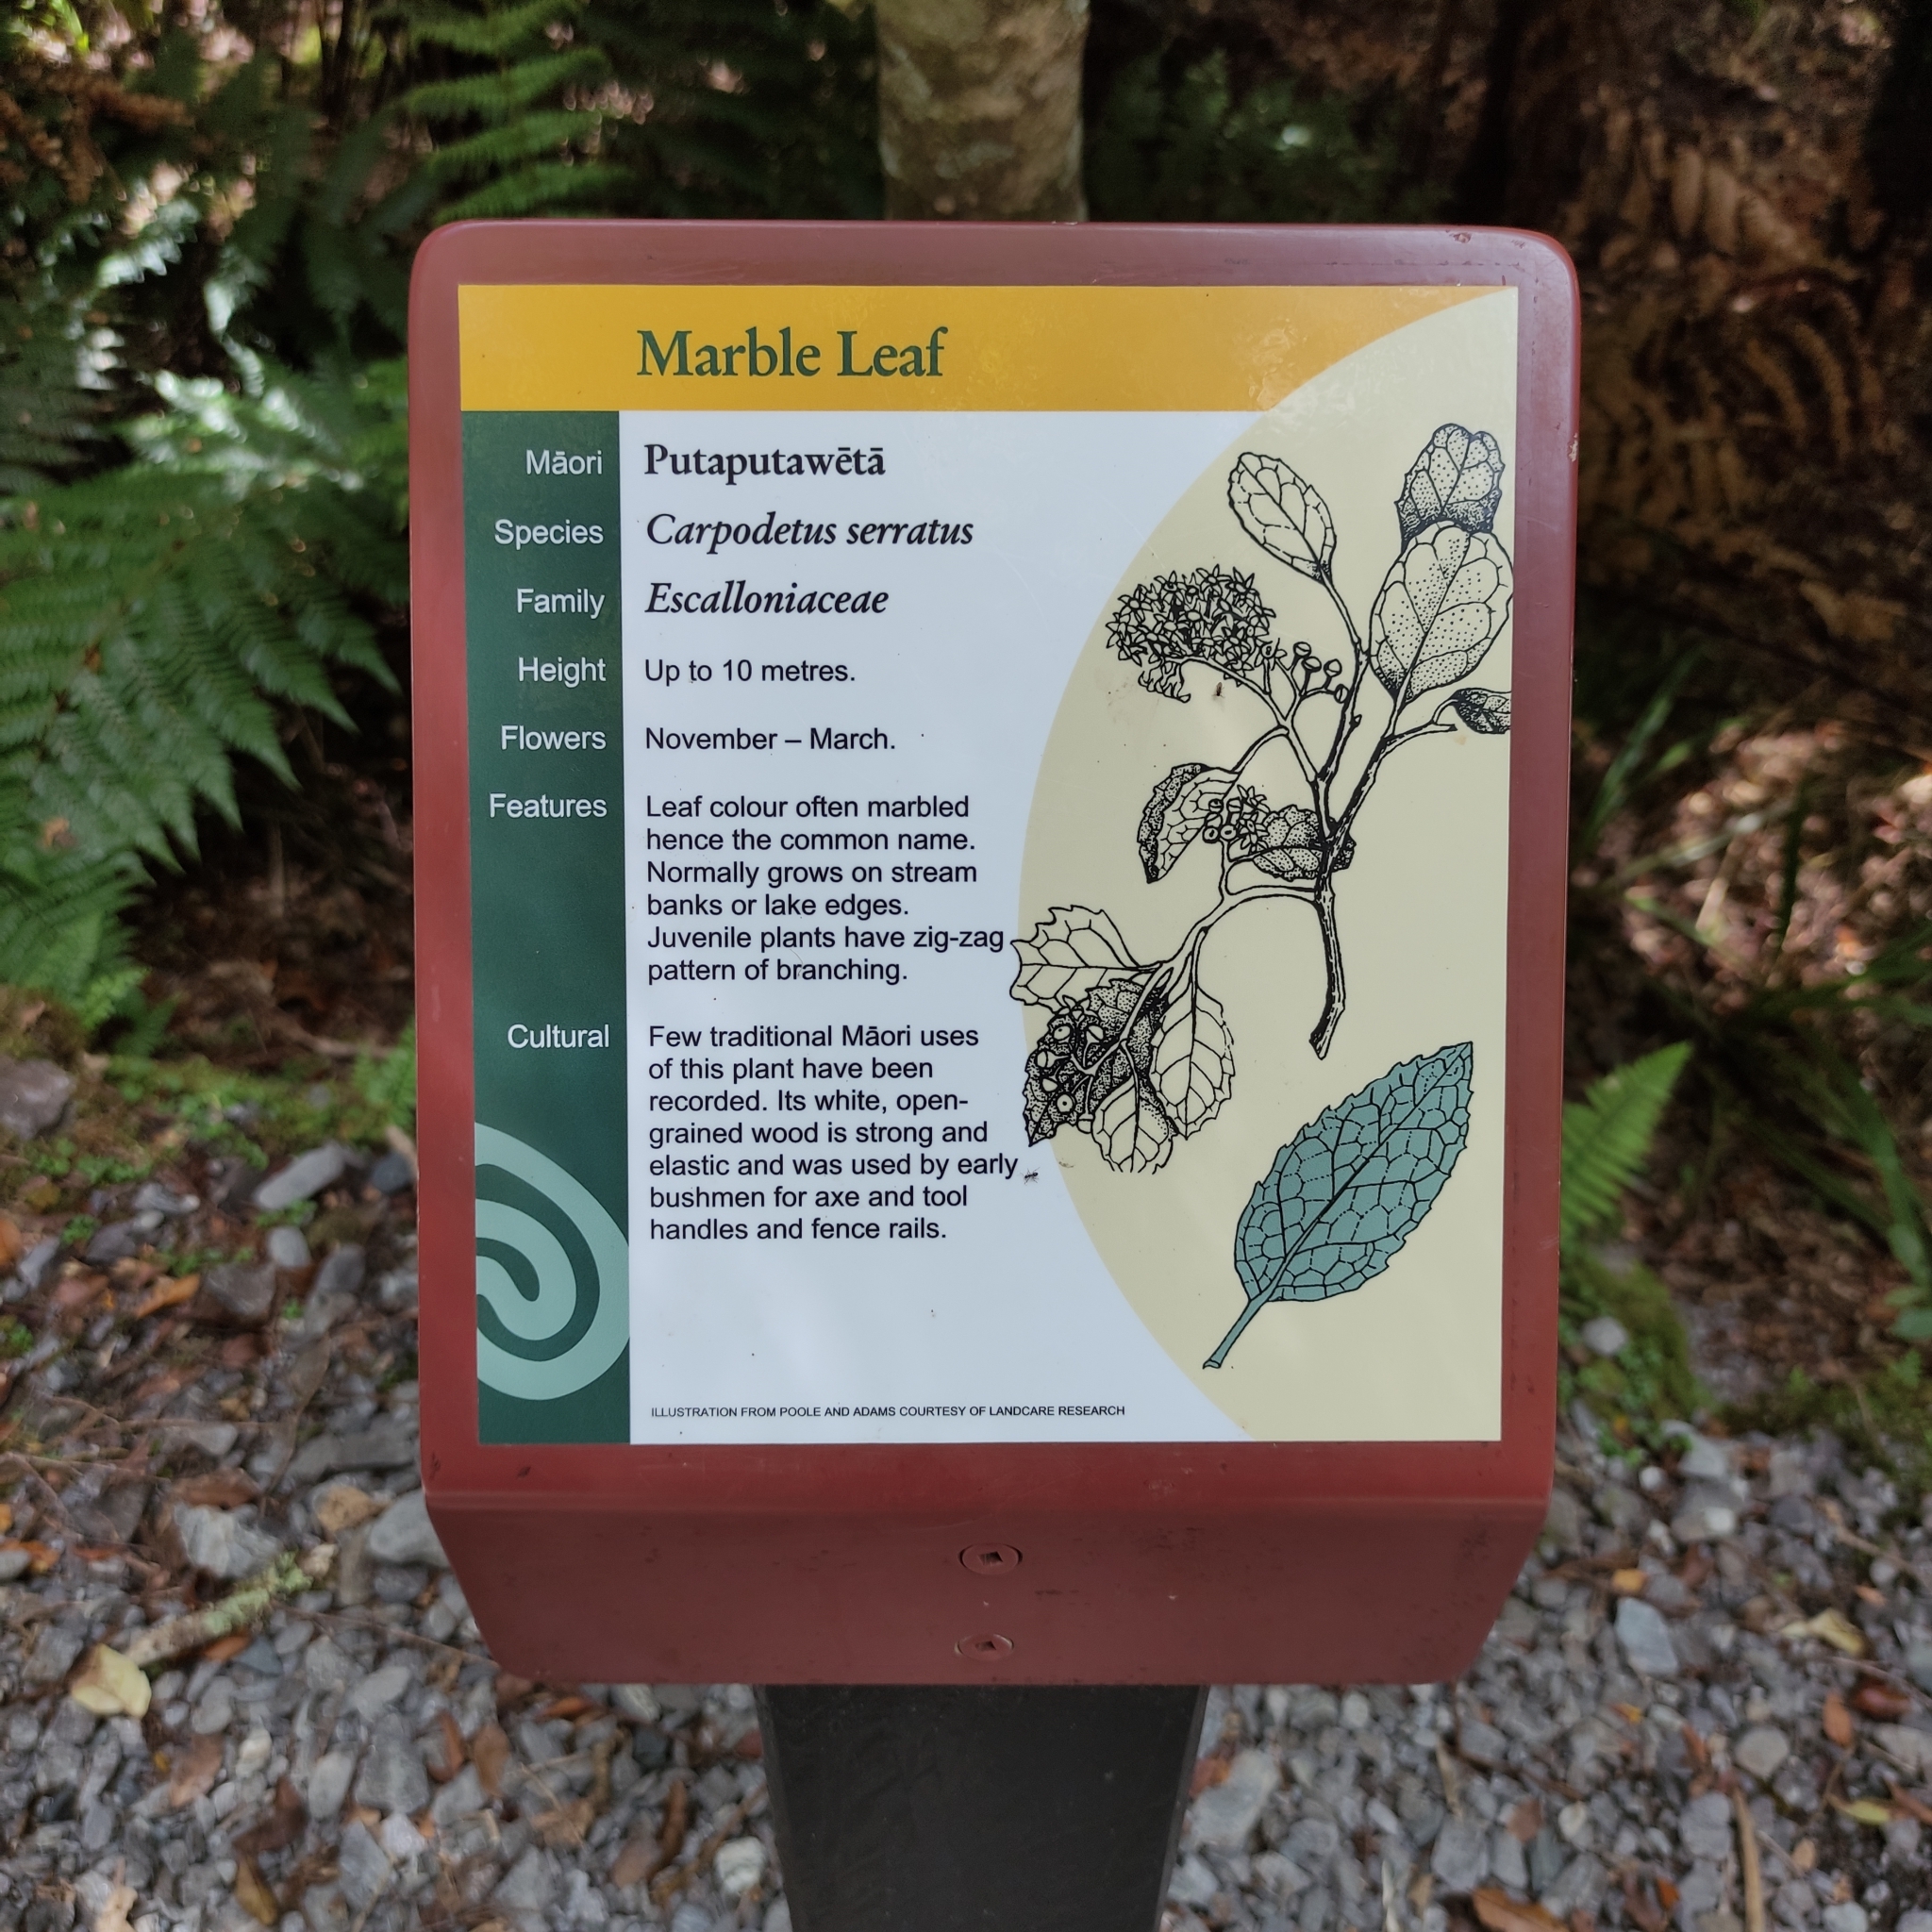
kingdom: Plantae
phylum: Tracheophyta
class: Magnoliopsida
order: Asterales
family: Rousseaceae
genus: Carpodetus
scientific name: Carpodetus serratus
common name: White mapau
